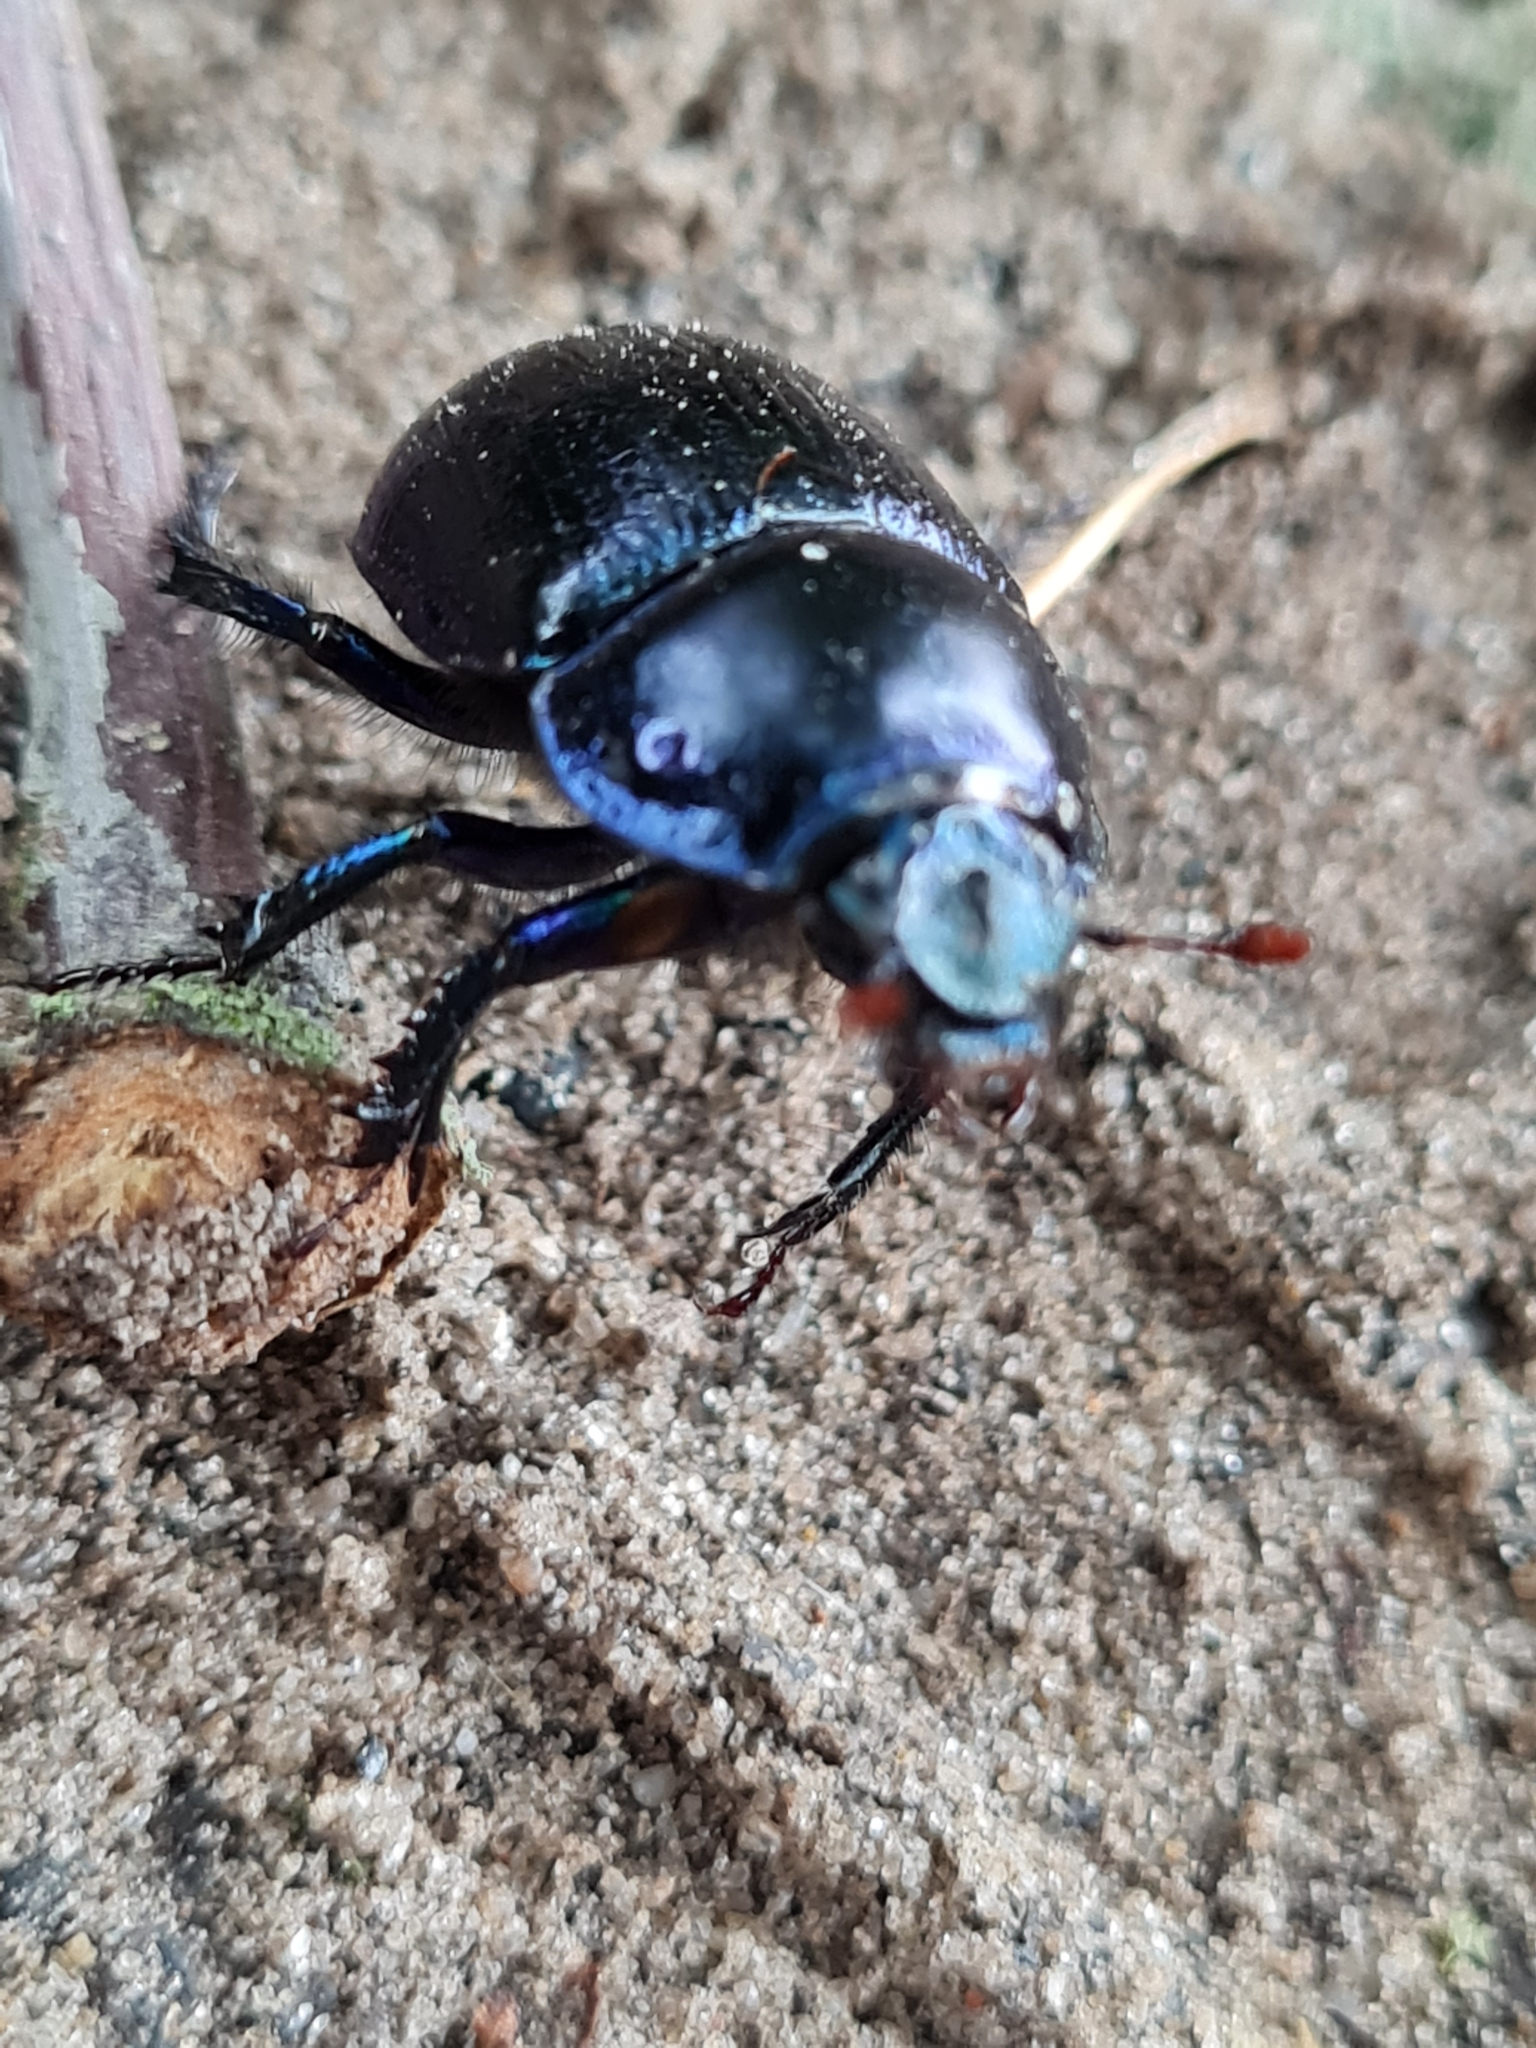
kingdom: Animalia
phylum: Arthropoda
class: Insecta
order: Coleoptera
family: Geotrupidae
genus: Anoplotrupes
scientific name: Anoplotrupes stercorosus
